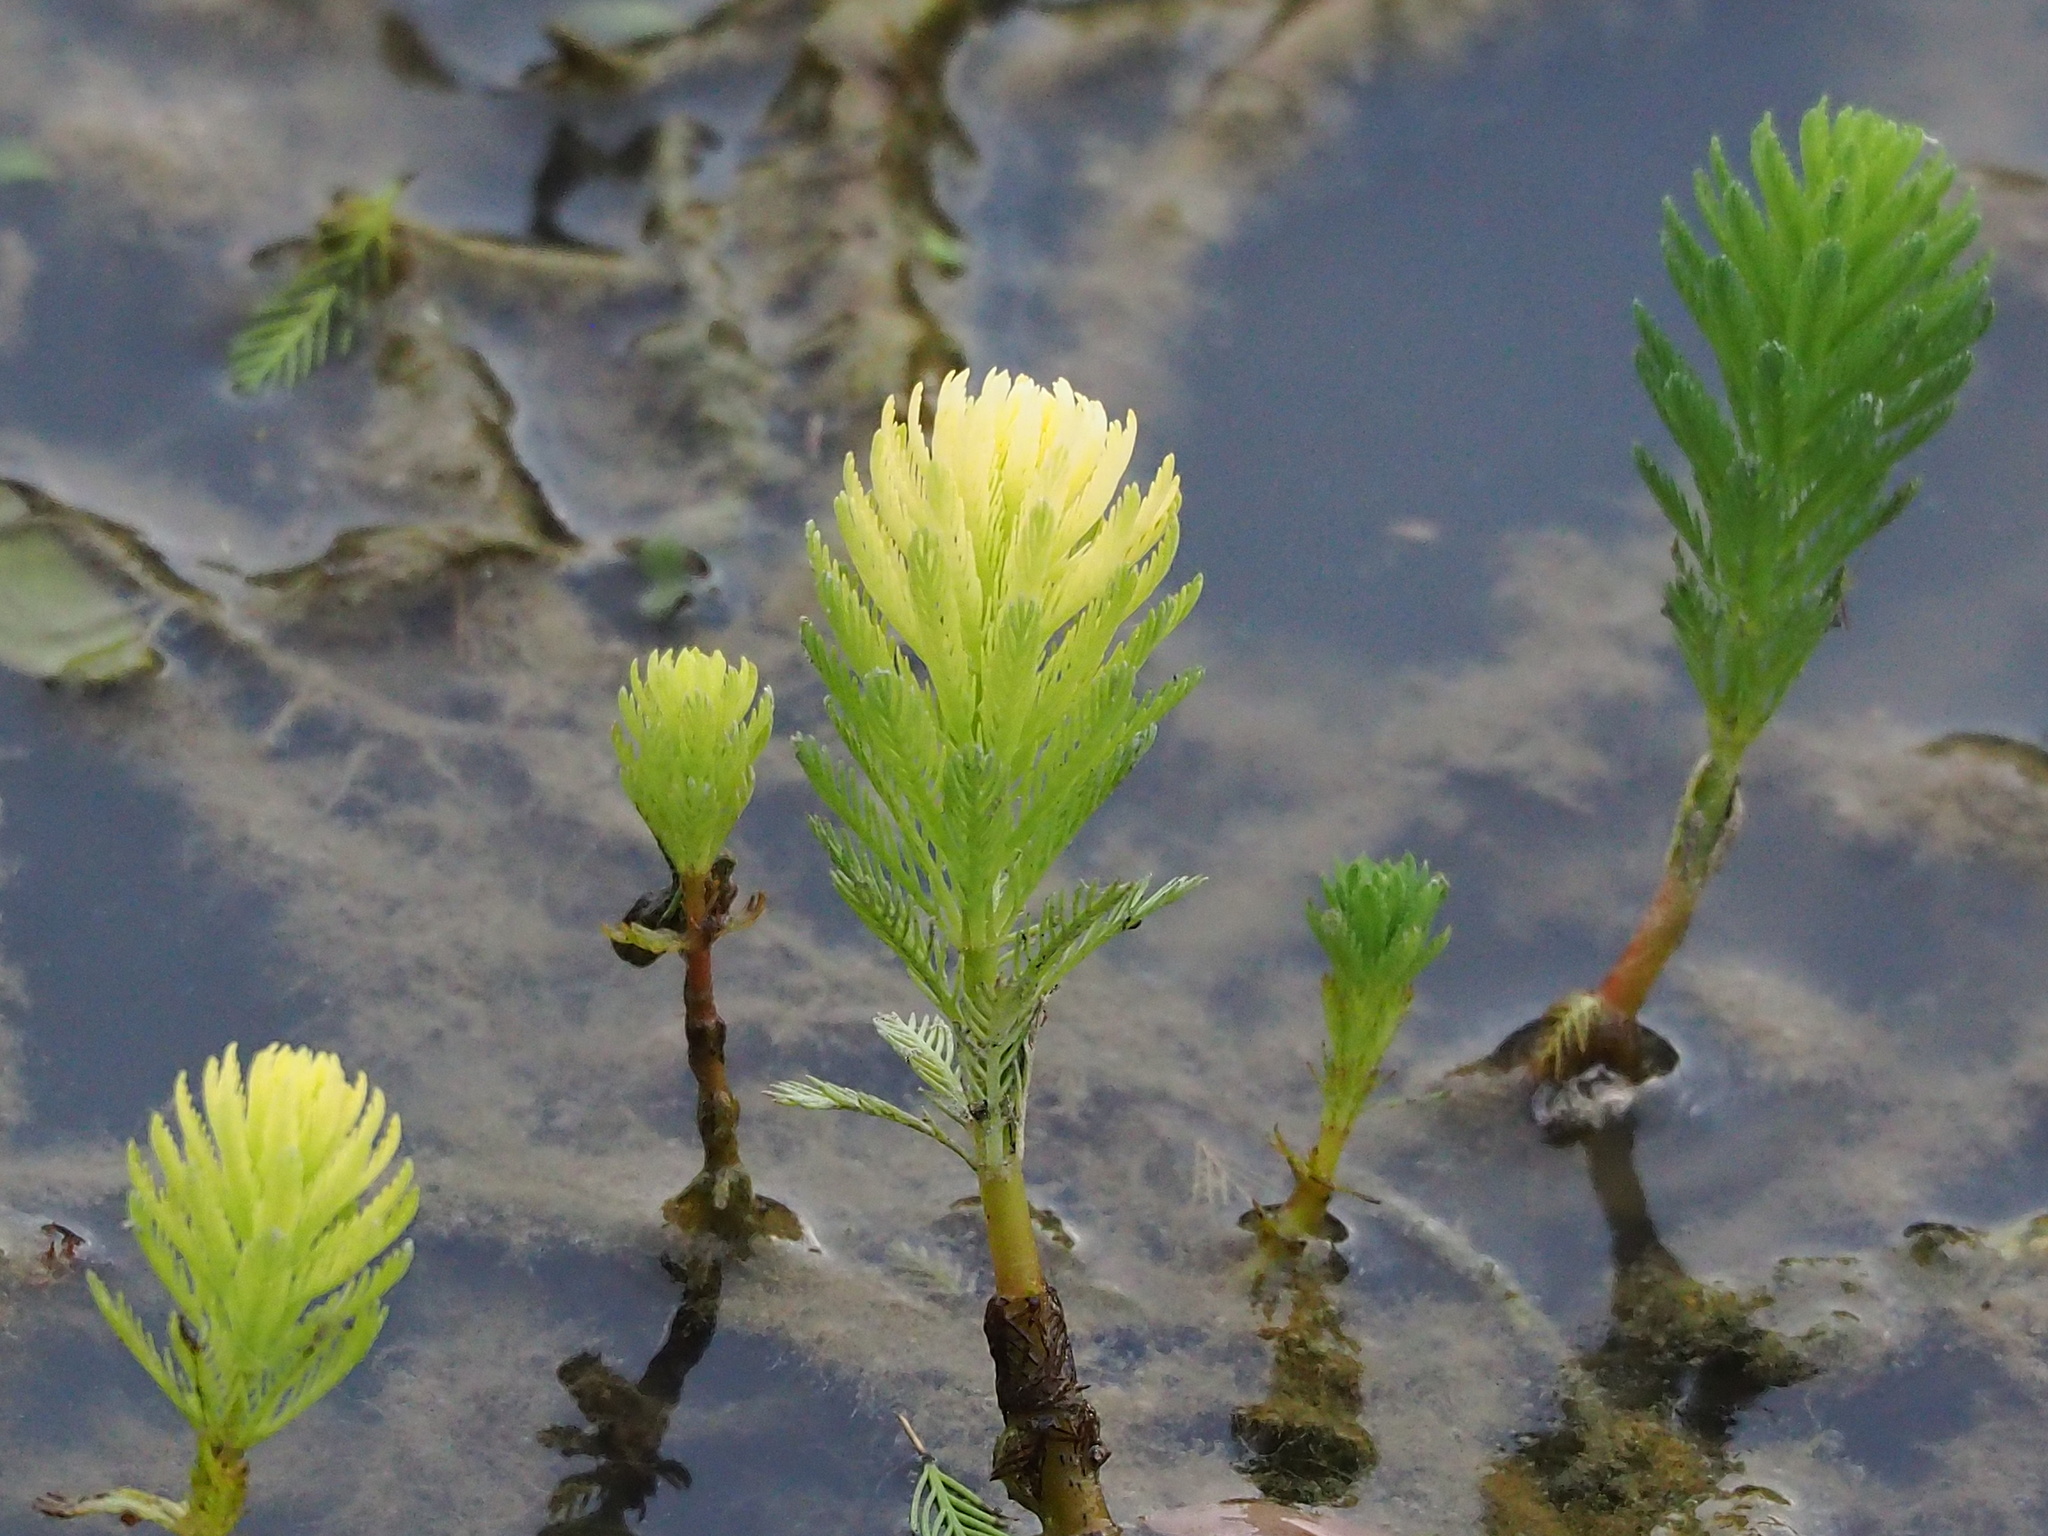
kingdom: Plantae
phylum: Tracheophyta
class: Magnoliopsida
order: Saxifragales
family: Haloragaceae
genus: Myriophyllum
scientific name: Myriophyllum aquaticum
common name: Parrot's feather
